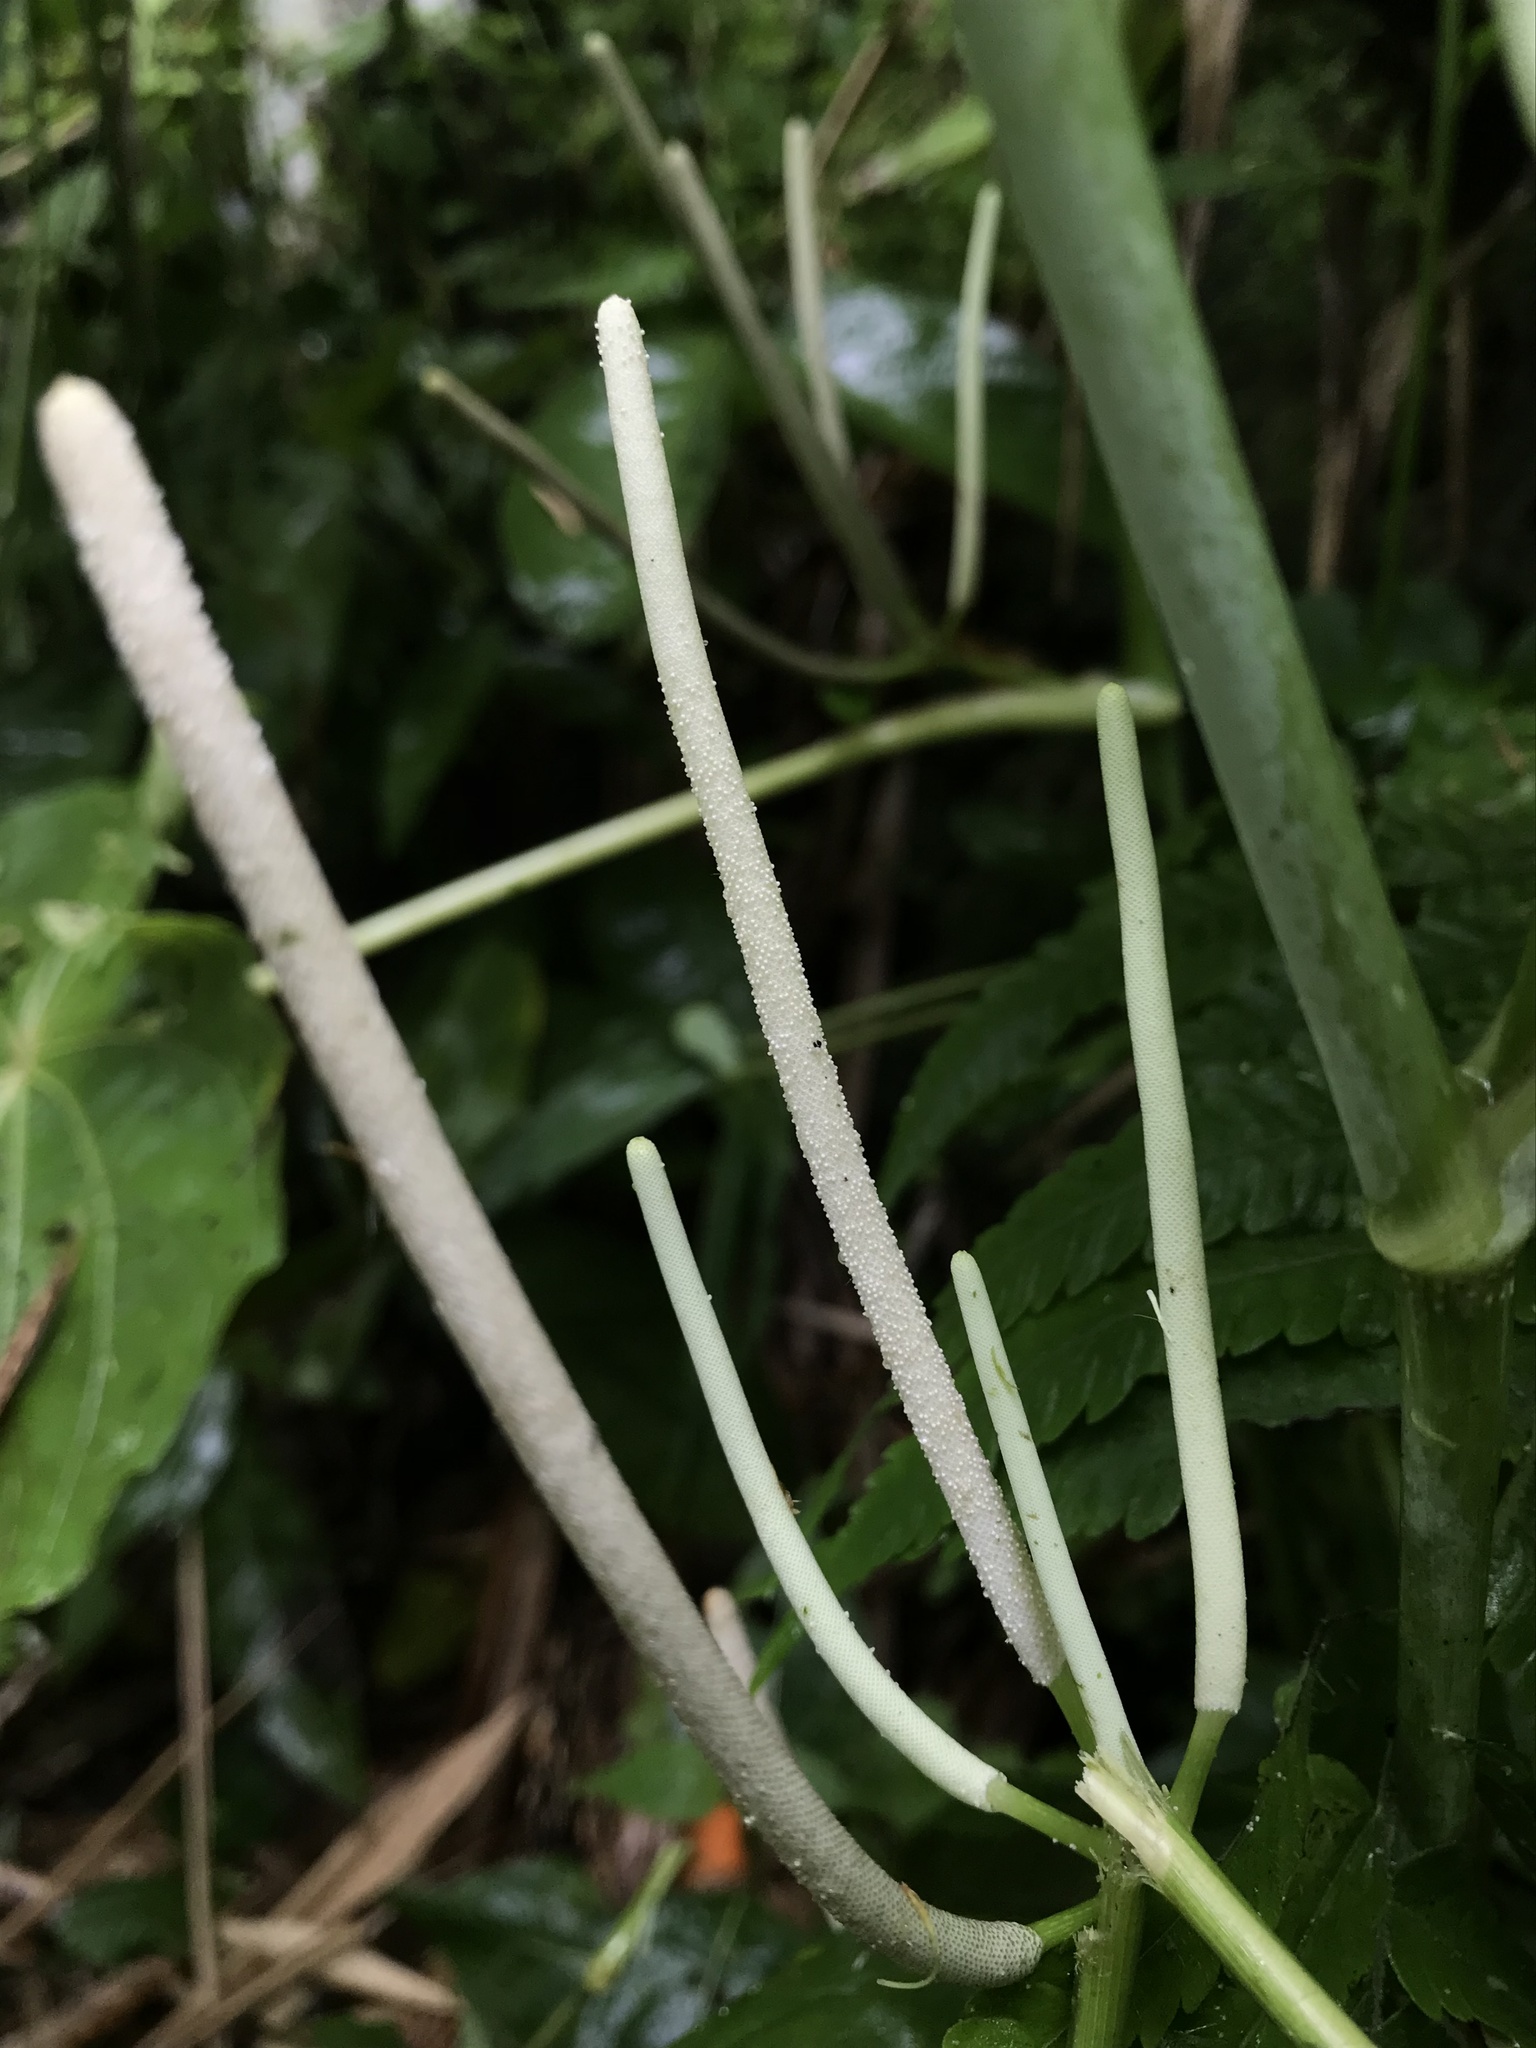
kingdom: Plantae
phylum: Tracheophyta
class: Magnoliopsida
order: Piperales
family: Piperaceae
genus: Piper
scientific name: Piper peltatum
